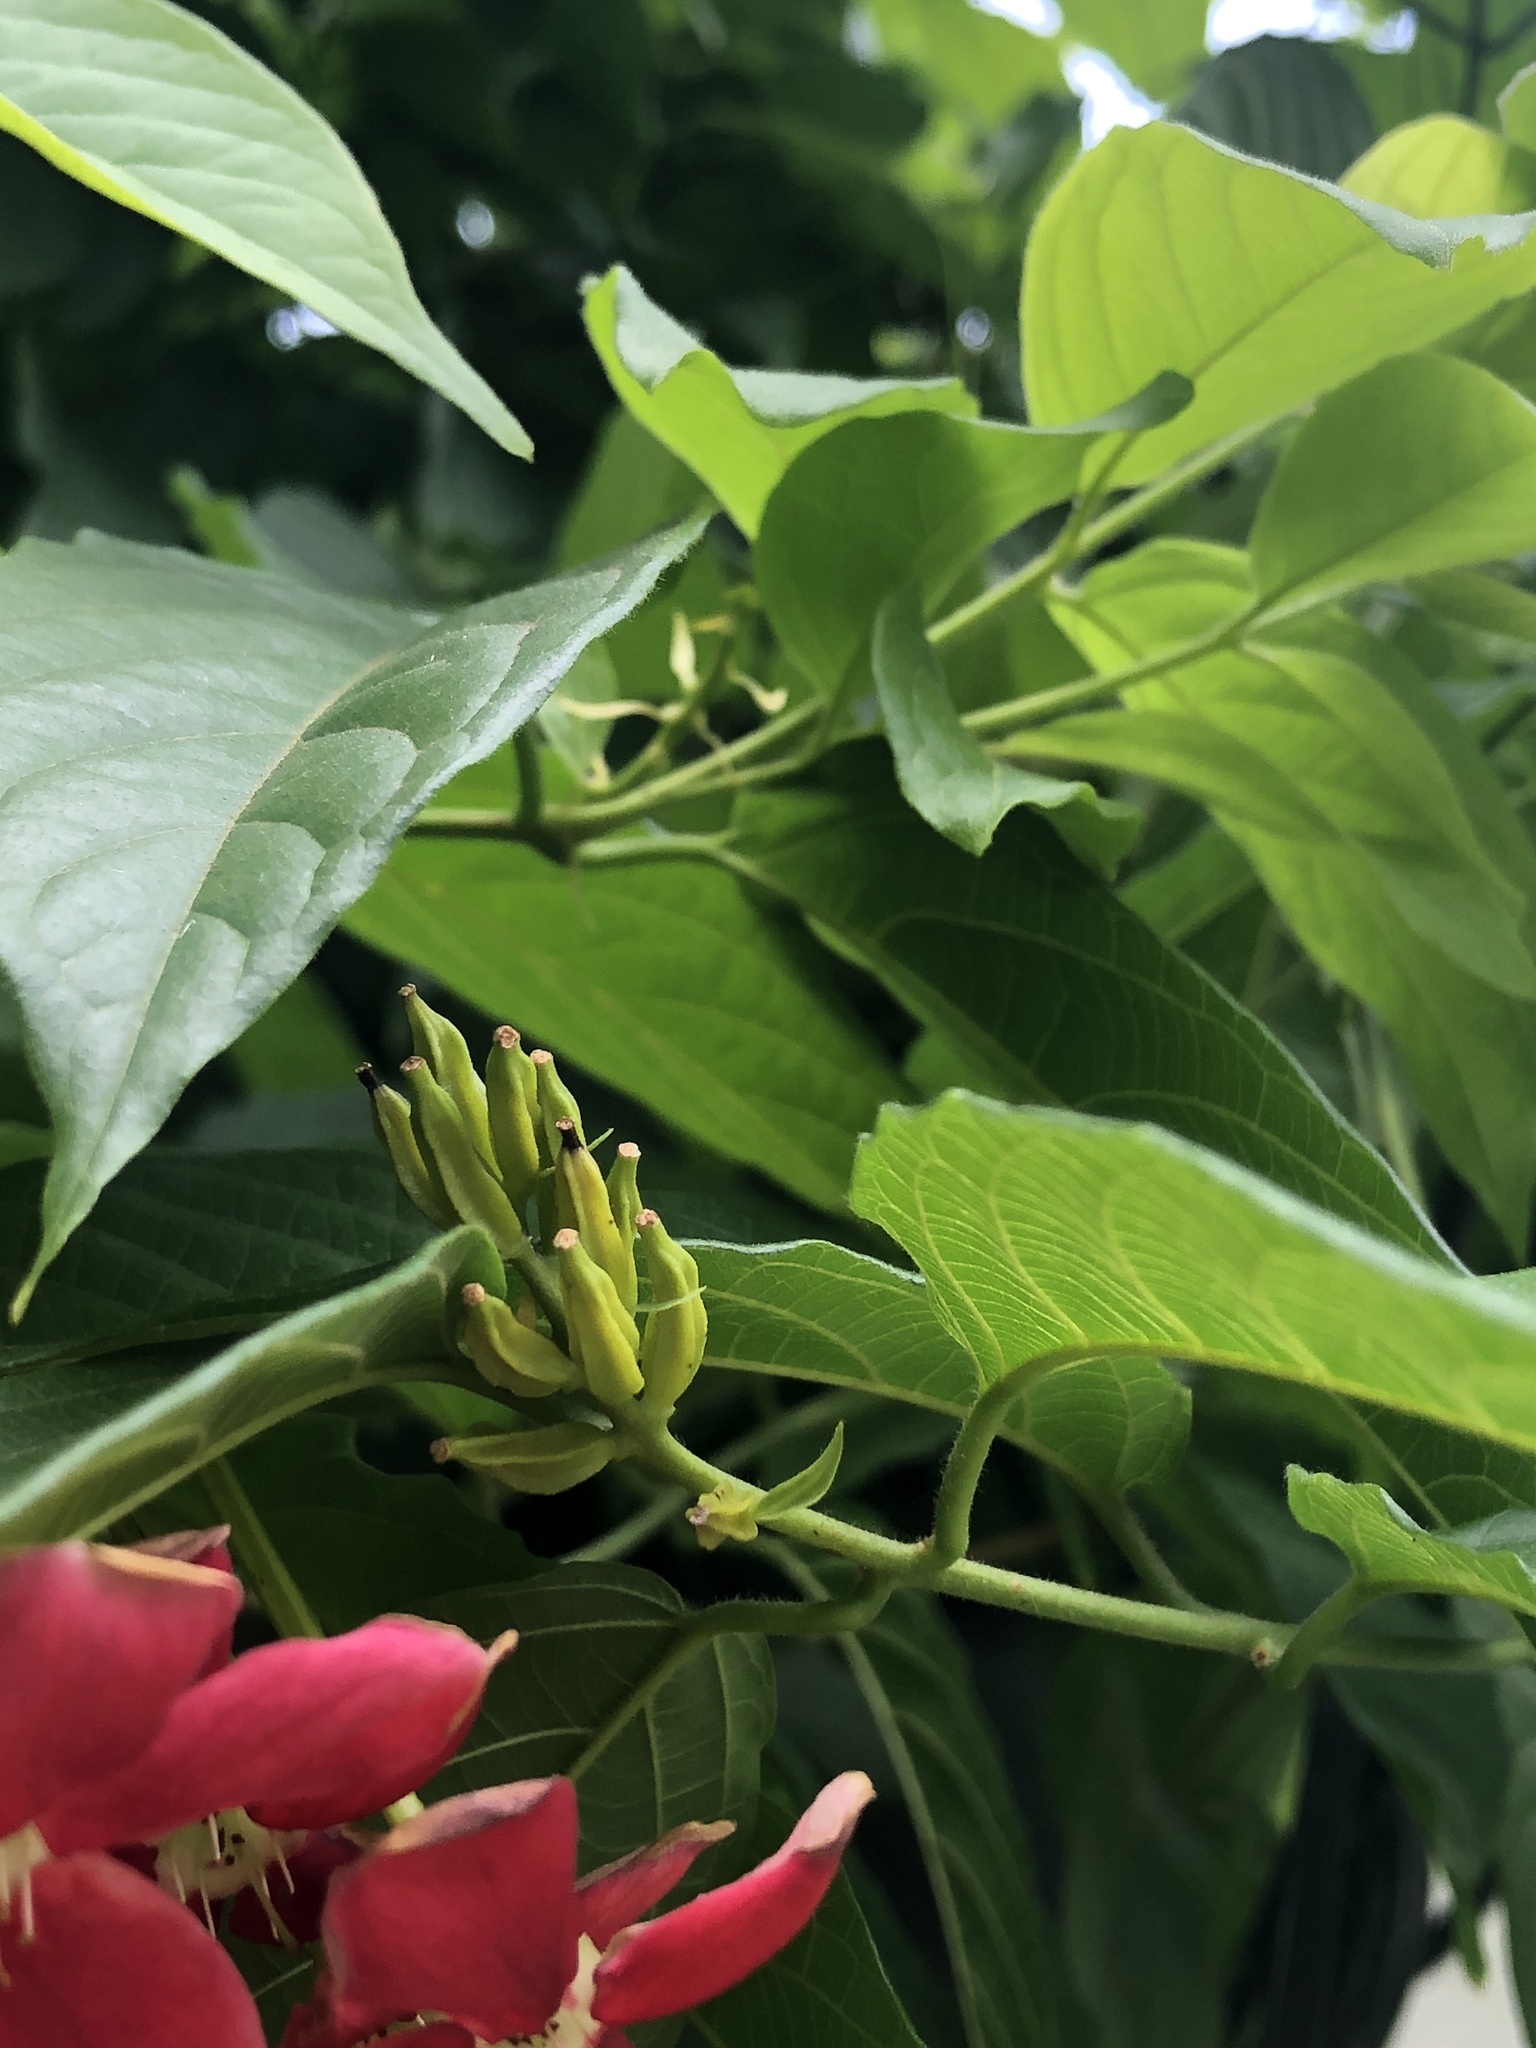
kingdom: Plantae
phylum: Tracheophyta
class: Magnoliopsida
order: Myrtales
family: Combretaceae
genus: Combretum
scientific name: Combretum indicum
